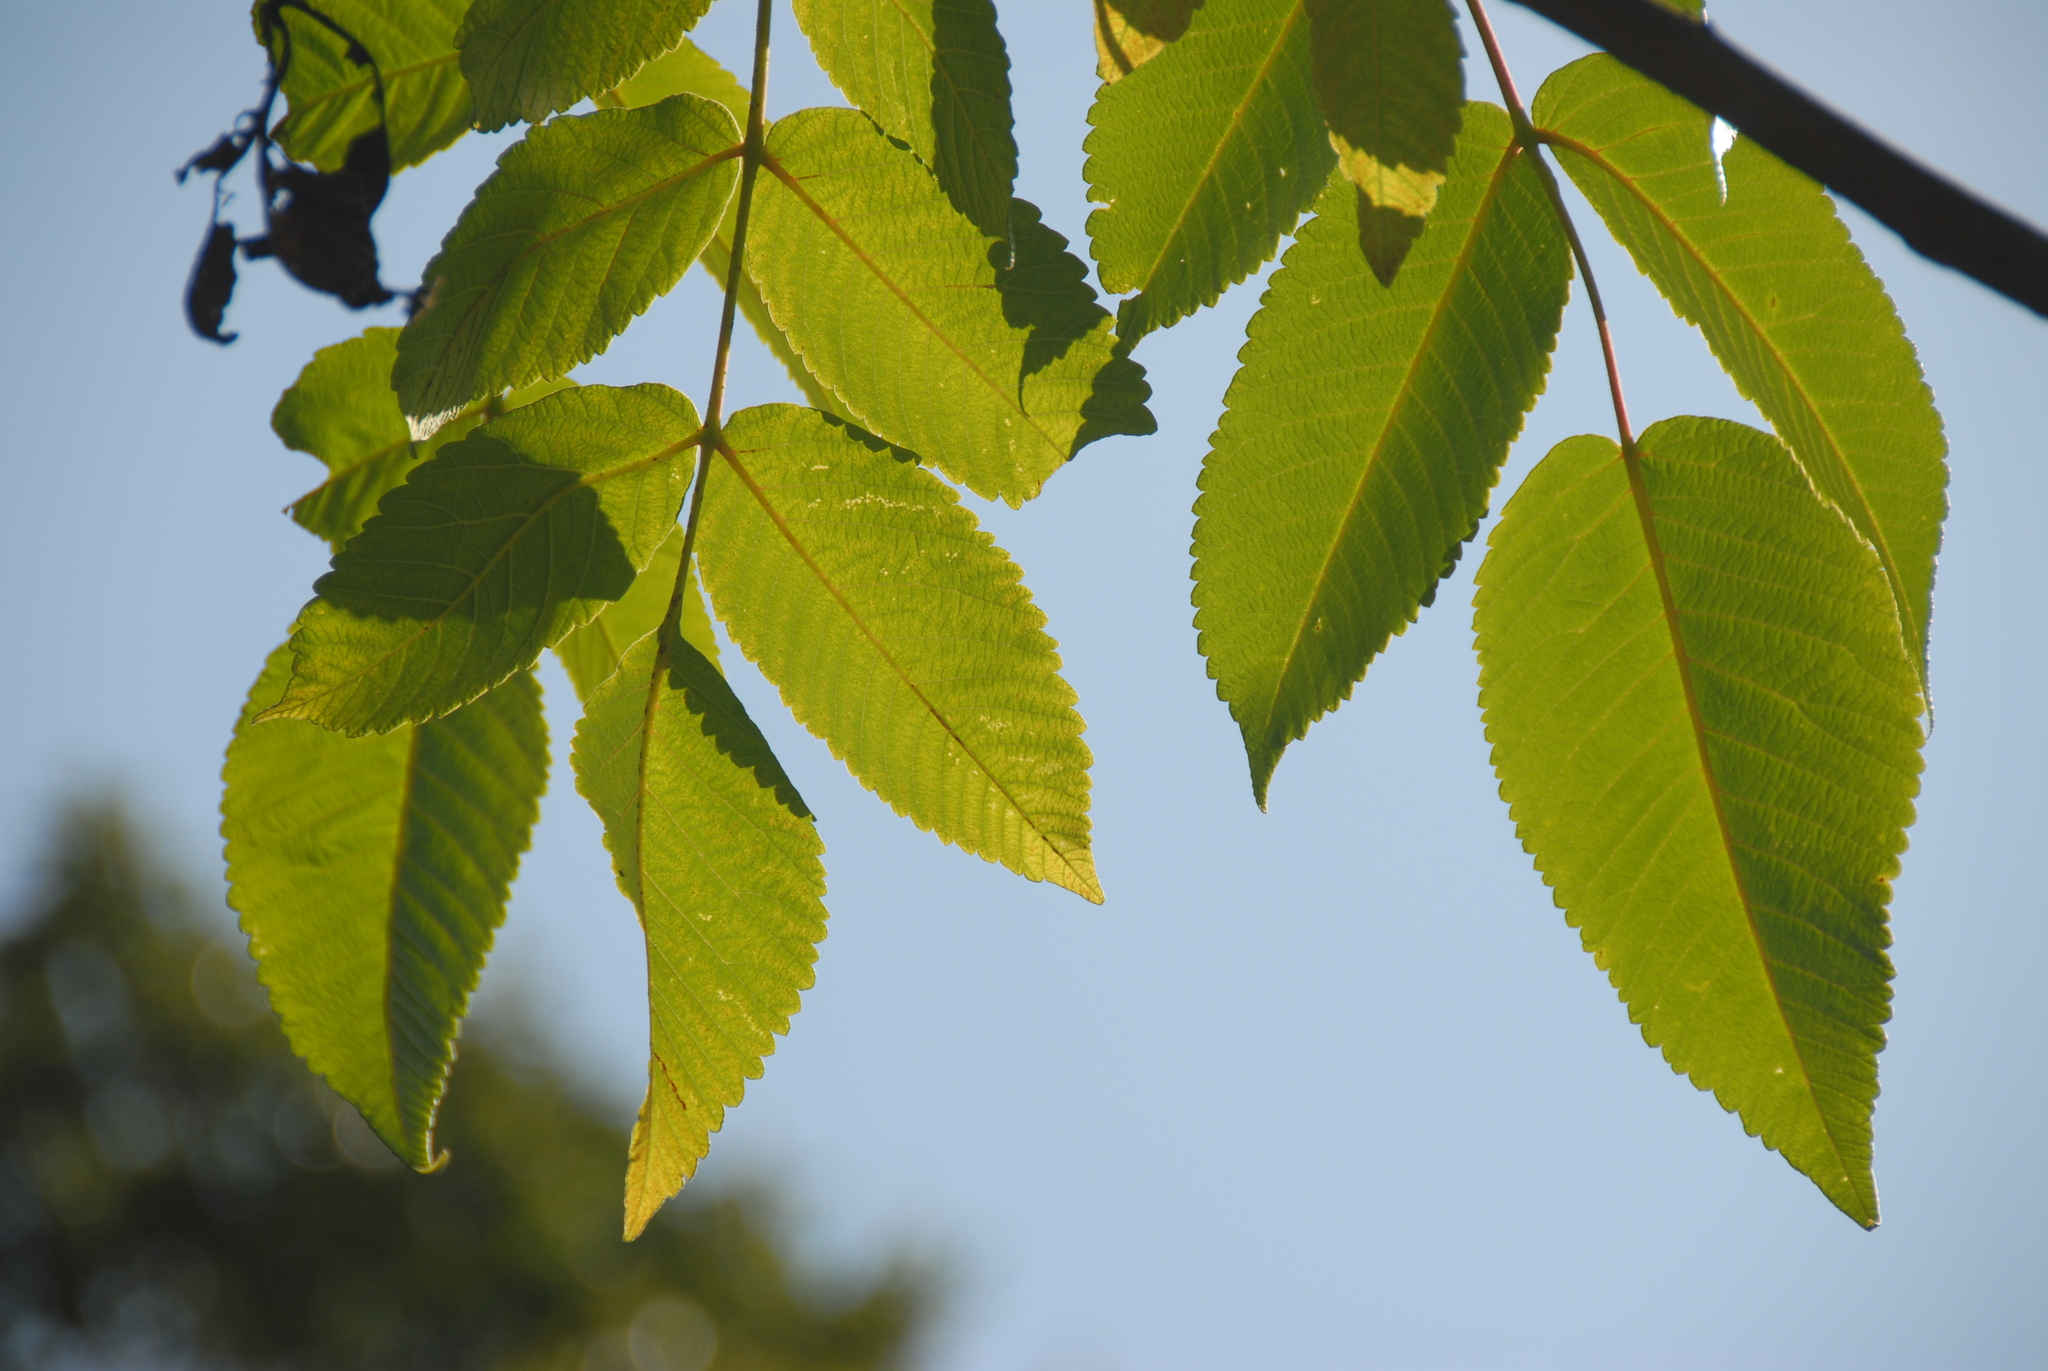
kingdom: Plantae
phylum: Tracheophyta
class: Magnoliopsida
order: Sapindales
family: Anacardiaceae
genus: Rhus
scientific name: Rhus chinensis
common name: Chinese gall
